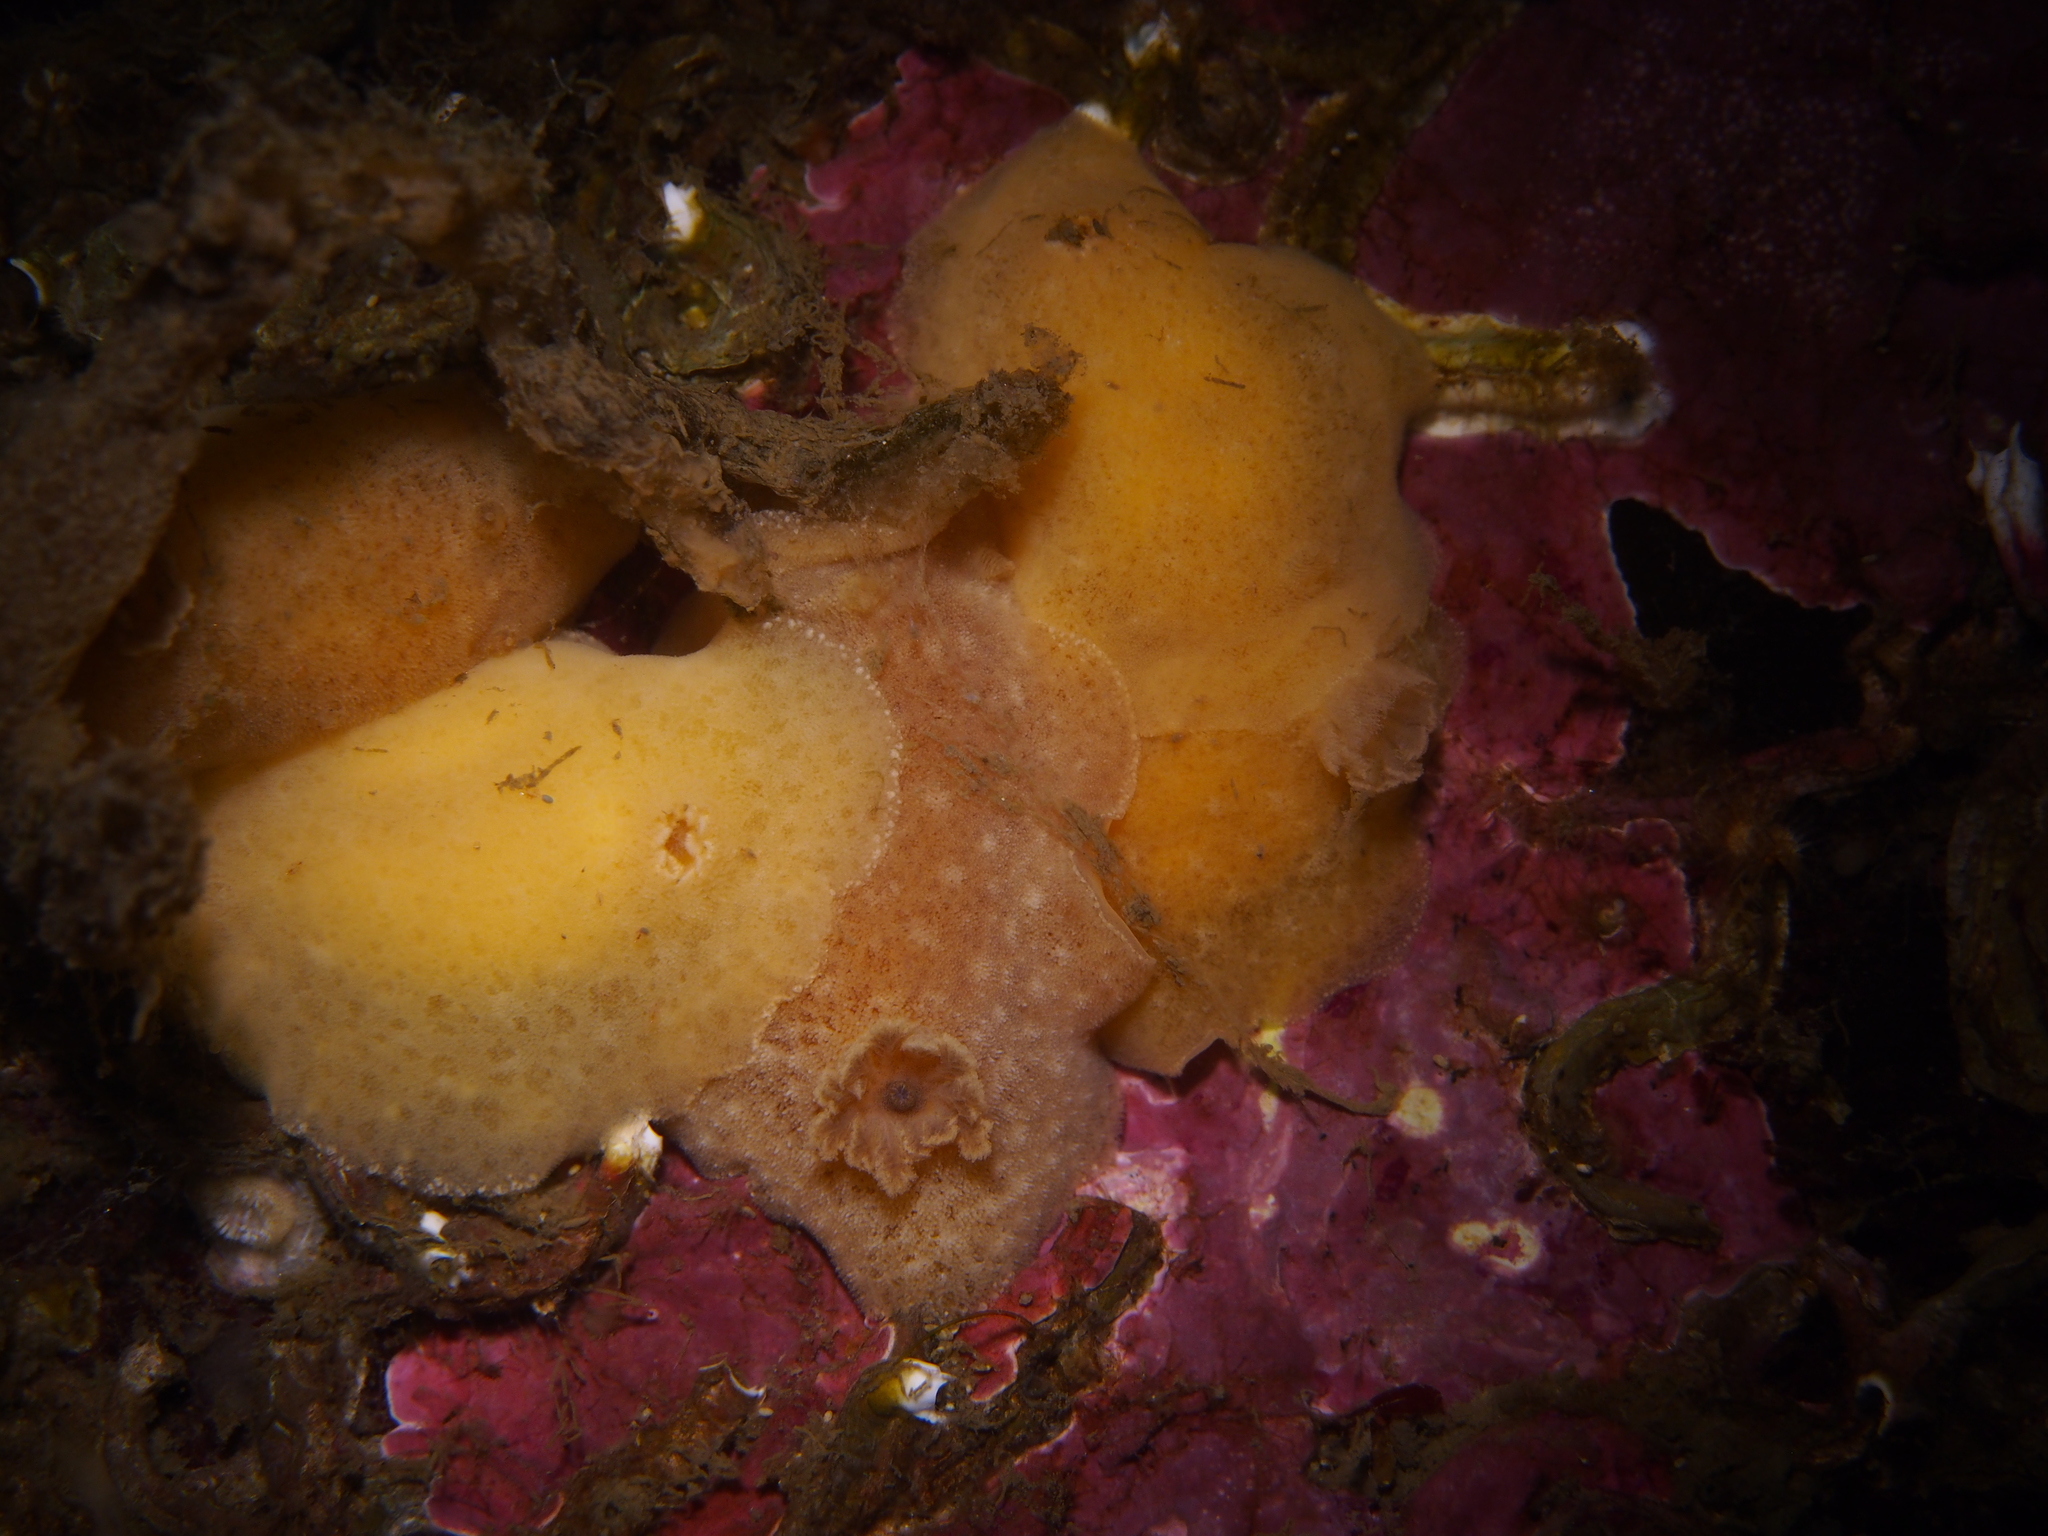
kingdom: Animalia
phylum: Mollusca
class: Gastropoda
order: Nudibranchia
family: Discodorididae
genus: Jorunna
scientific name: Jorunna tomentosa
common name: Grey sea slug
